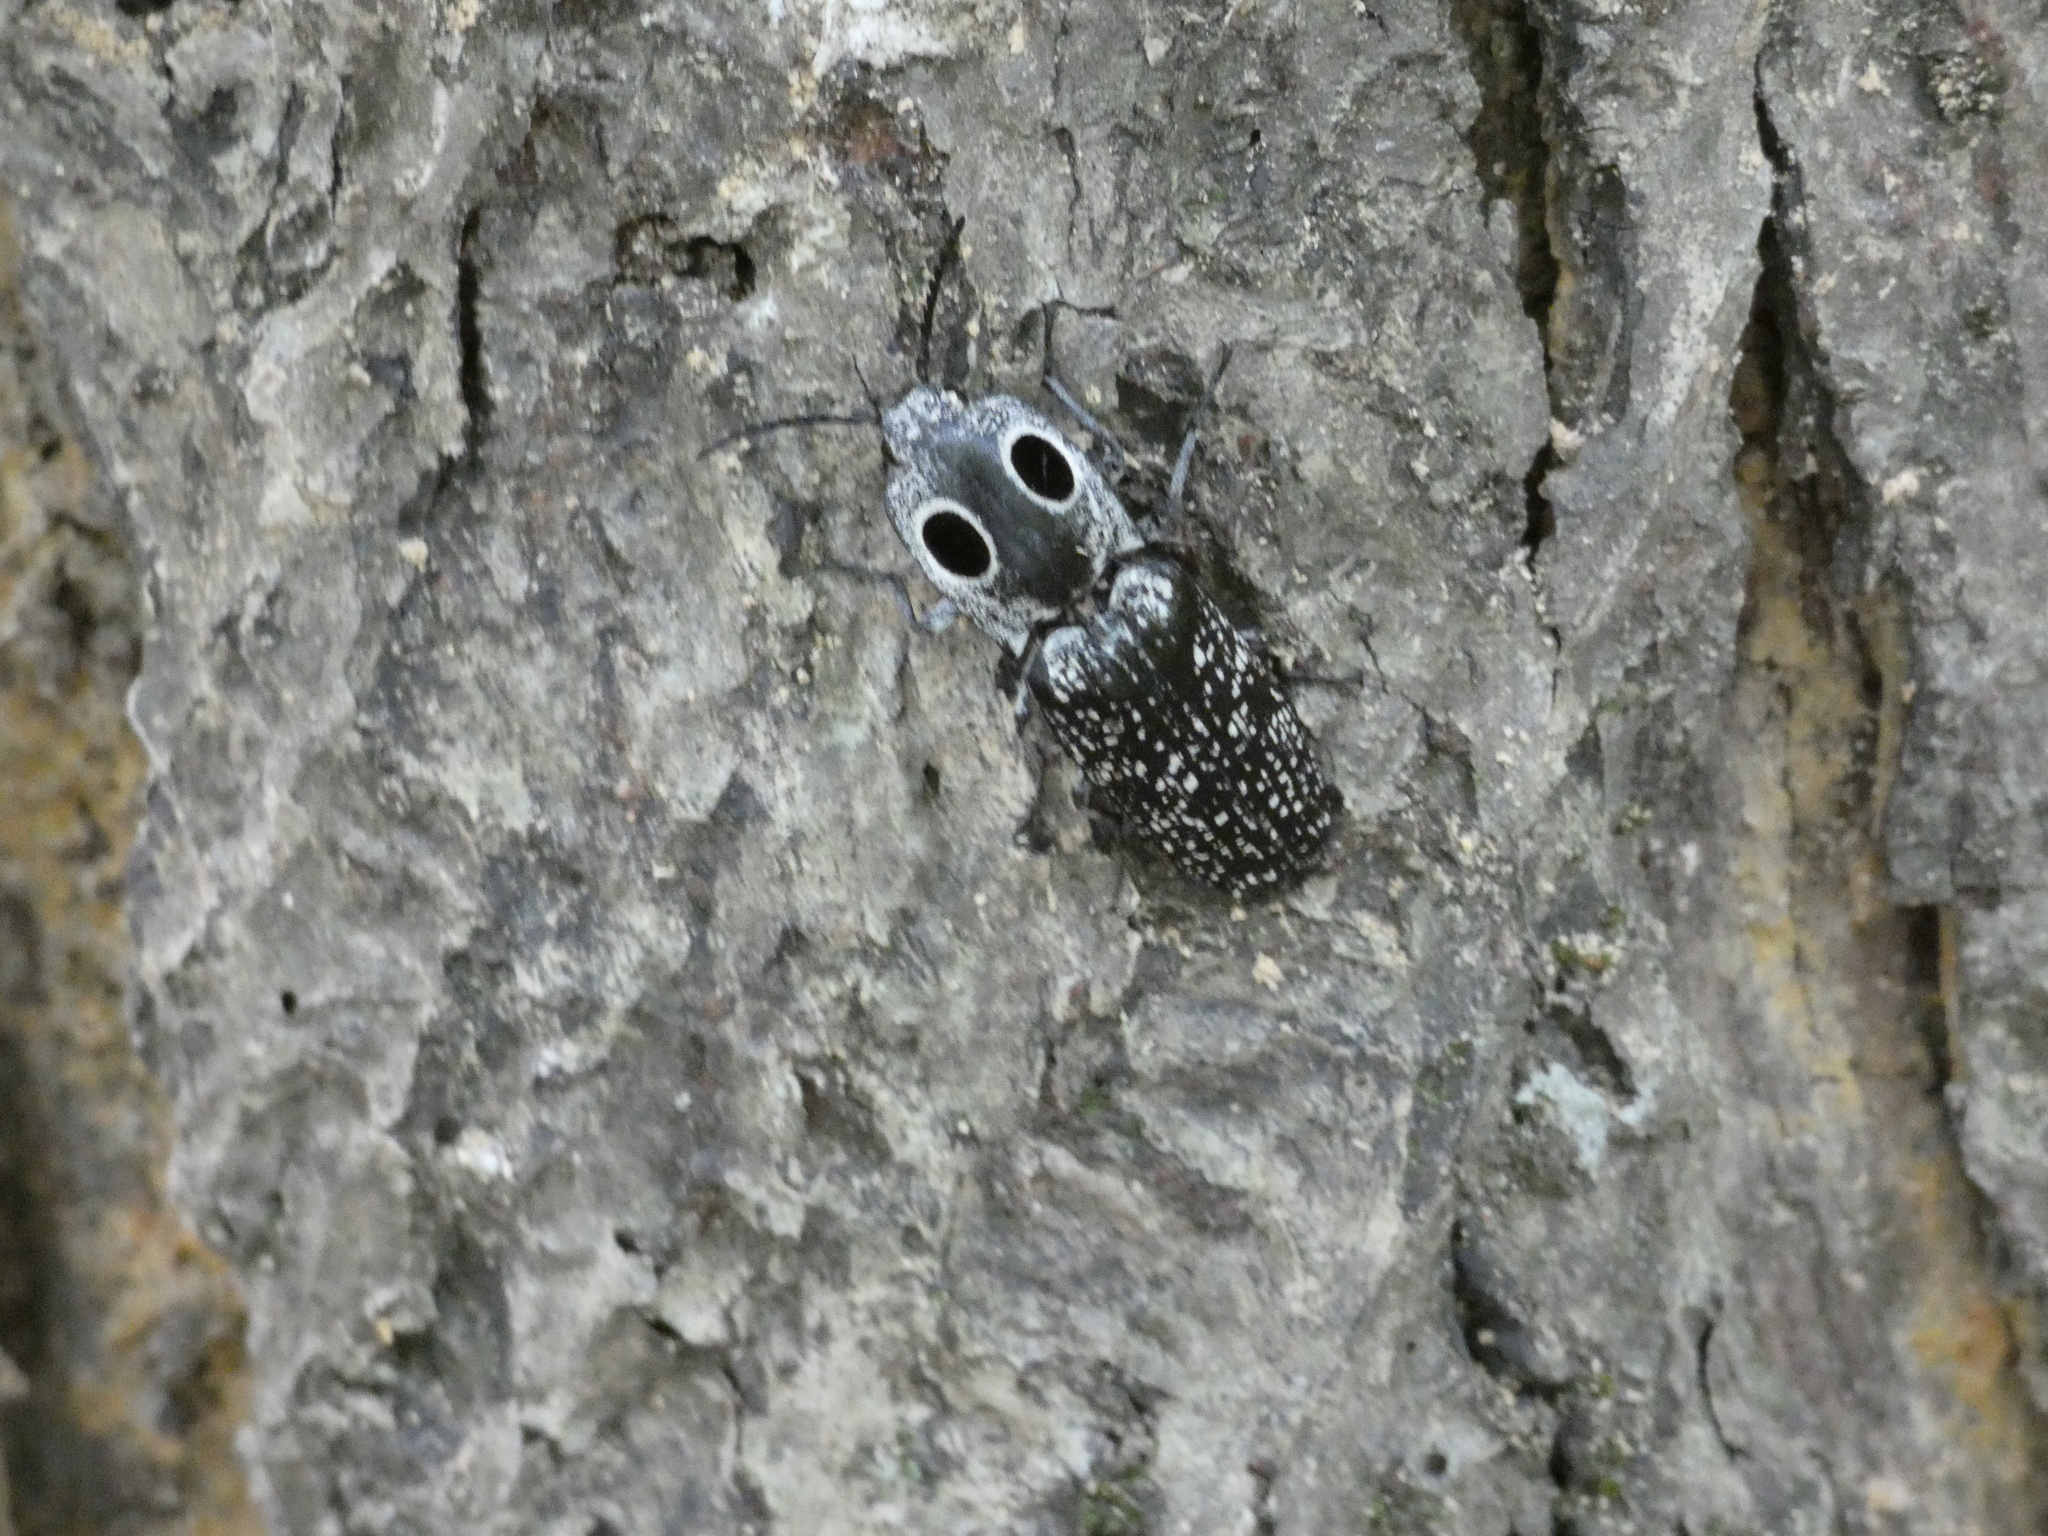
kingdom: Animalia
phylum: Arthropoda
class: Insecta
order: Coleoptera
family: Elateridae
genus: Alaus
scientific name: Alaus oculatus
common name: Eastern eyed click beetle
